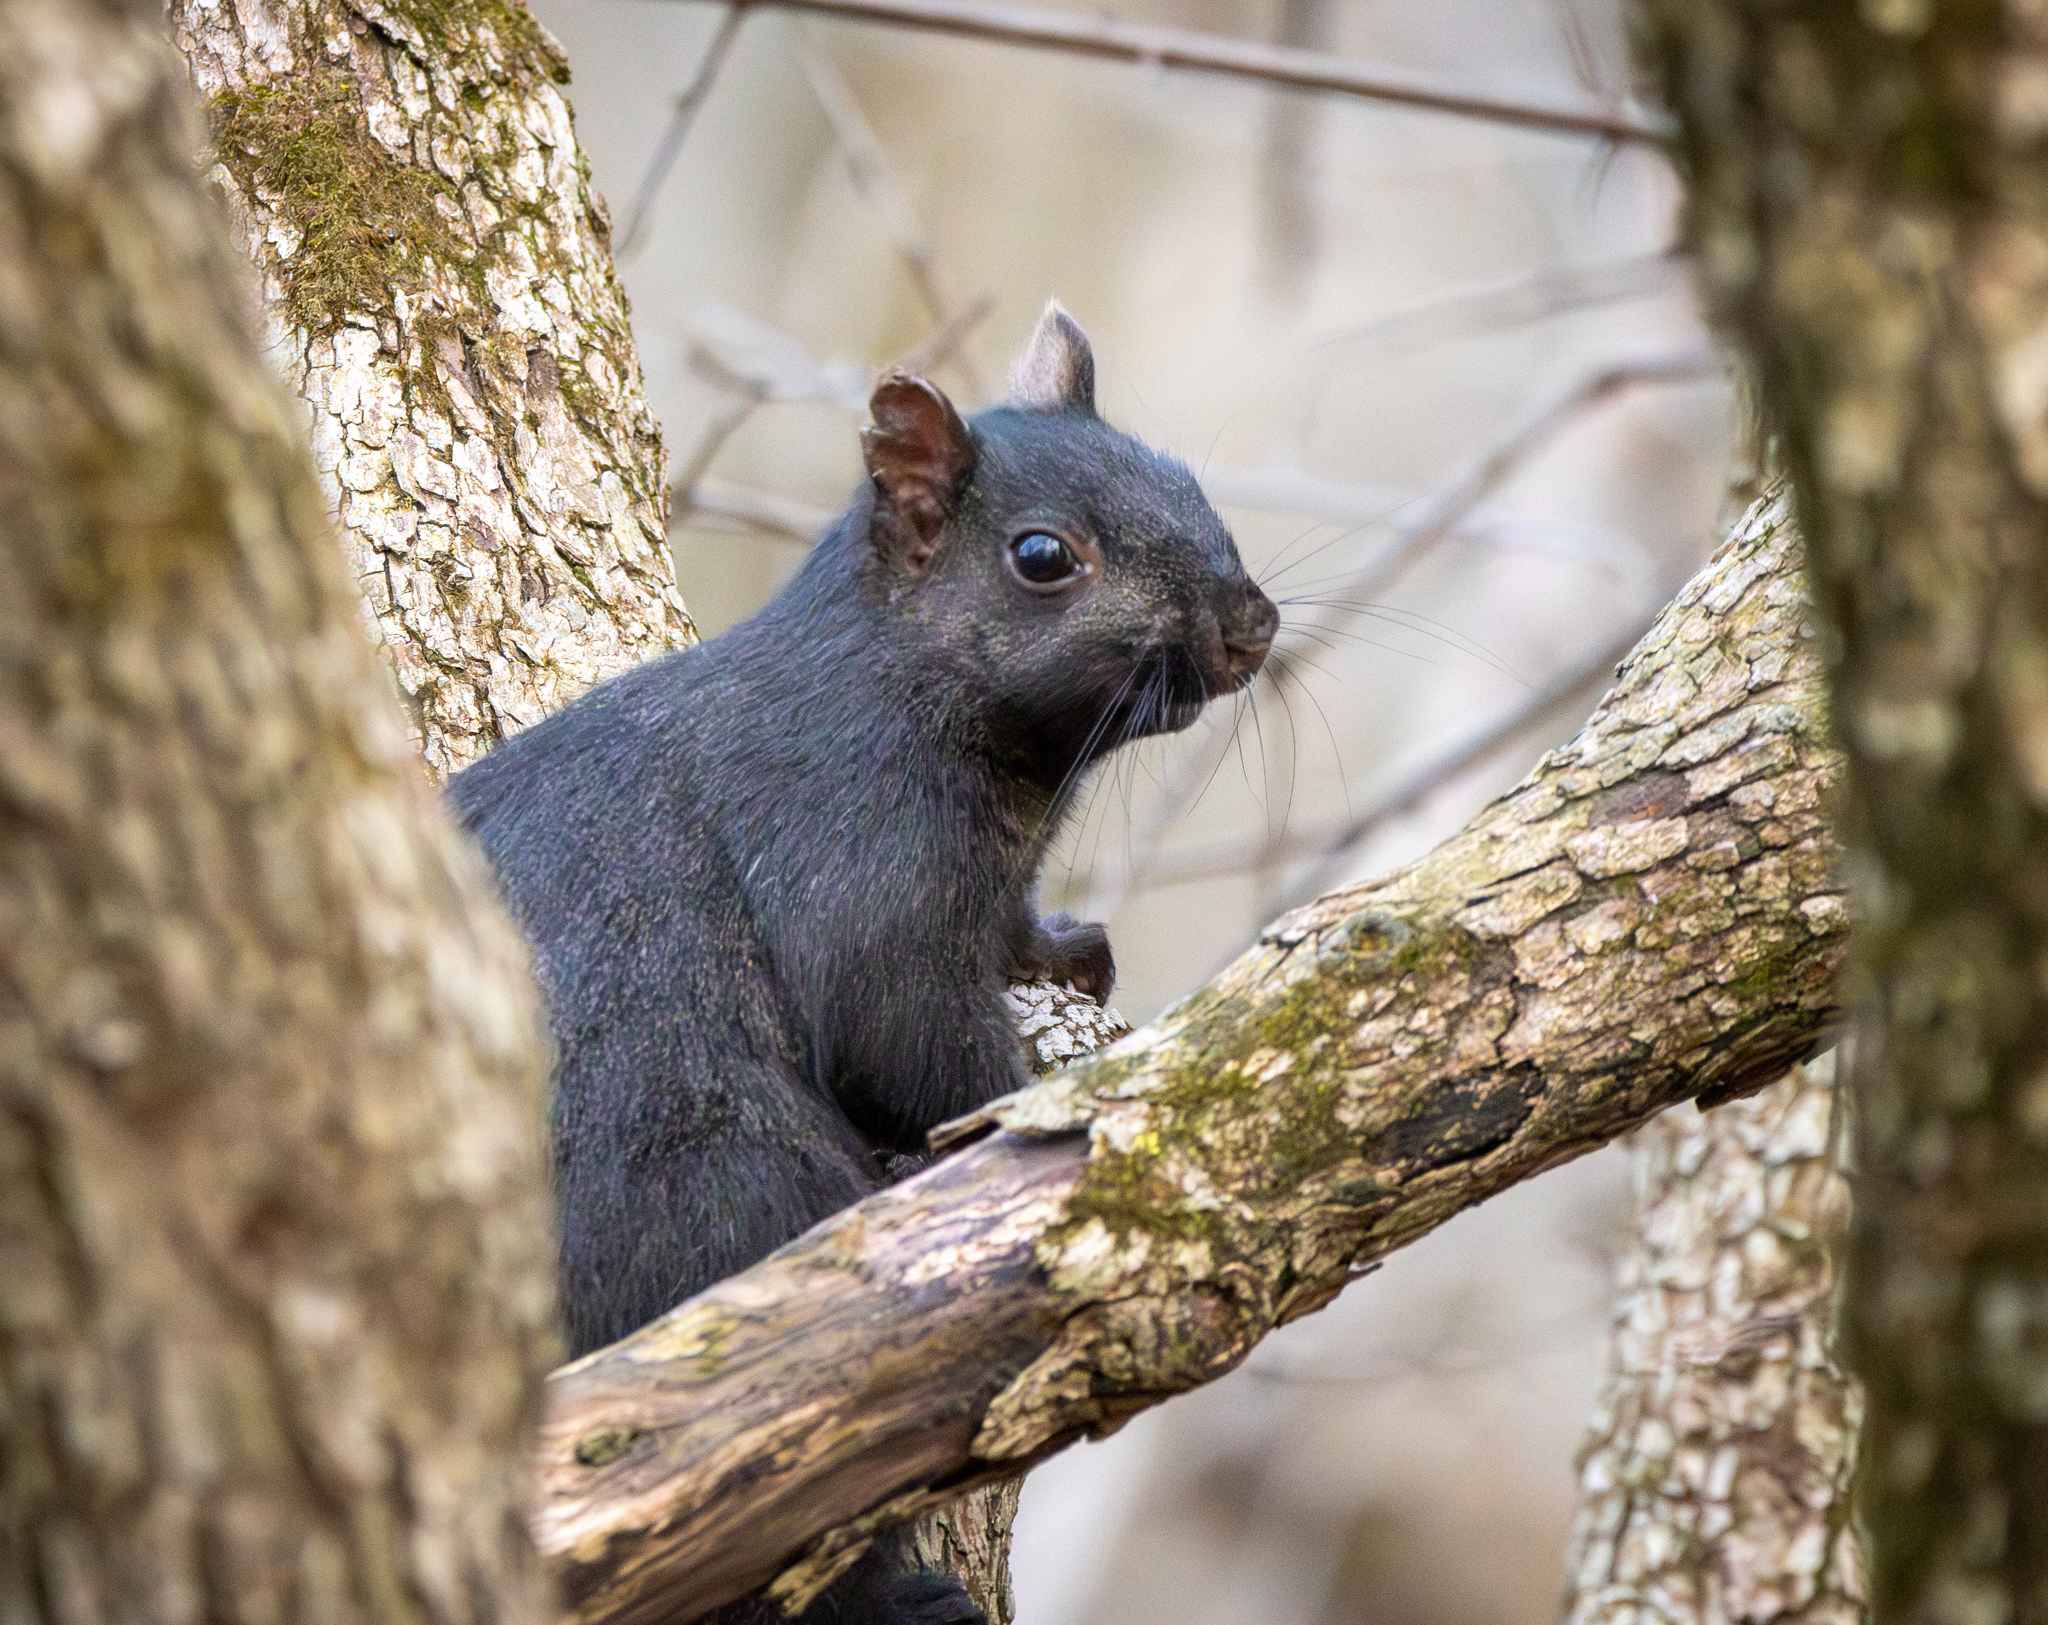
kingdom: Animalia
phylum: Chordata
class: Mammalia
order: Rodentia
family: Sciuridae
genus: Sciurus
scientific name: Sciurus carolinensis
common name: Eastern gray squirrel
